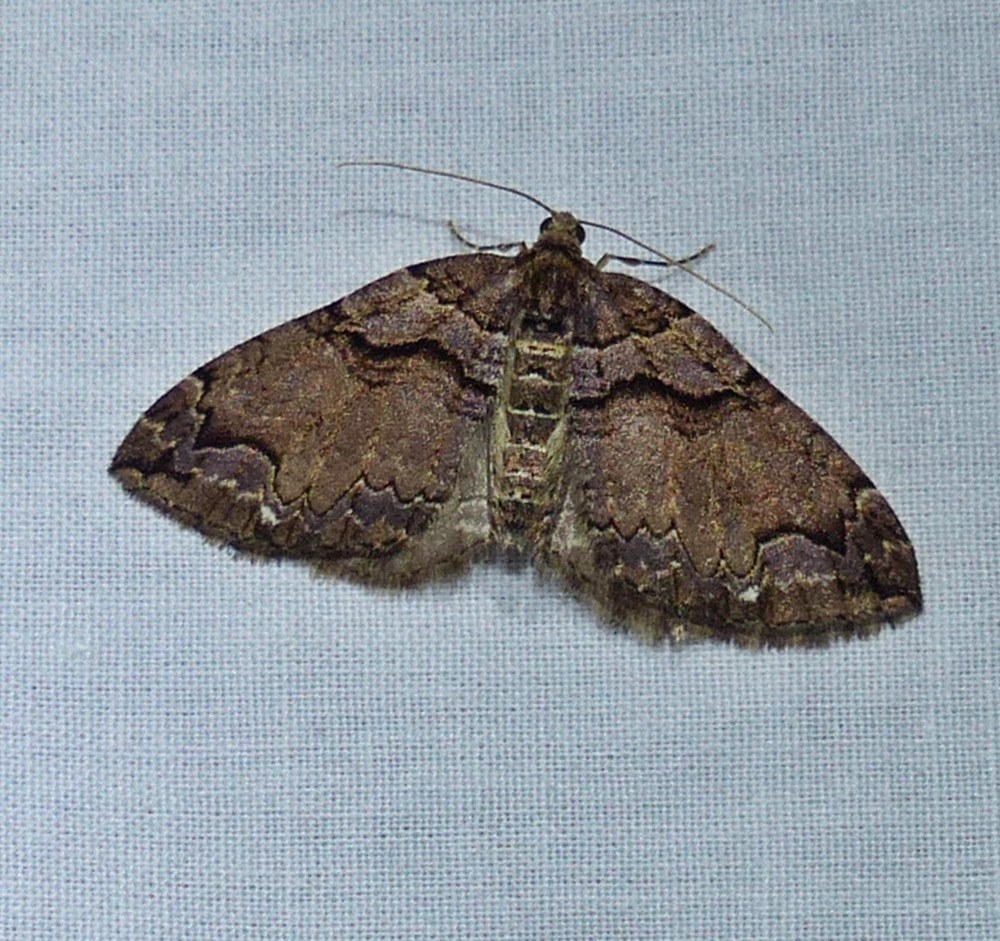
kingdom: Animalia
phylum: Arthropoda
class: Insecta
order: Lepidoptera
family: Geometridae
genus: Anticlea
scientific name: Anticlea vasiliata
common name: Variable carpet
